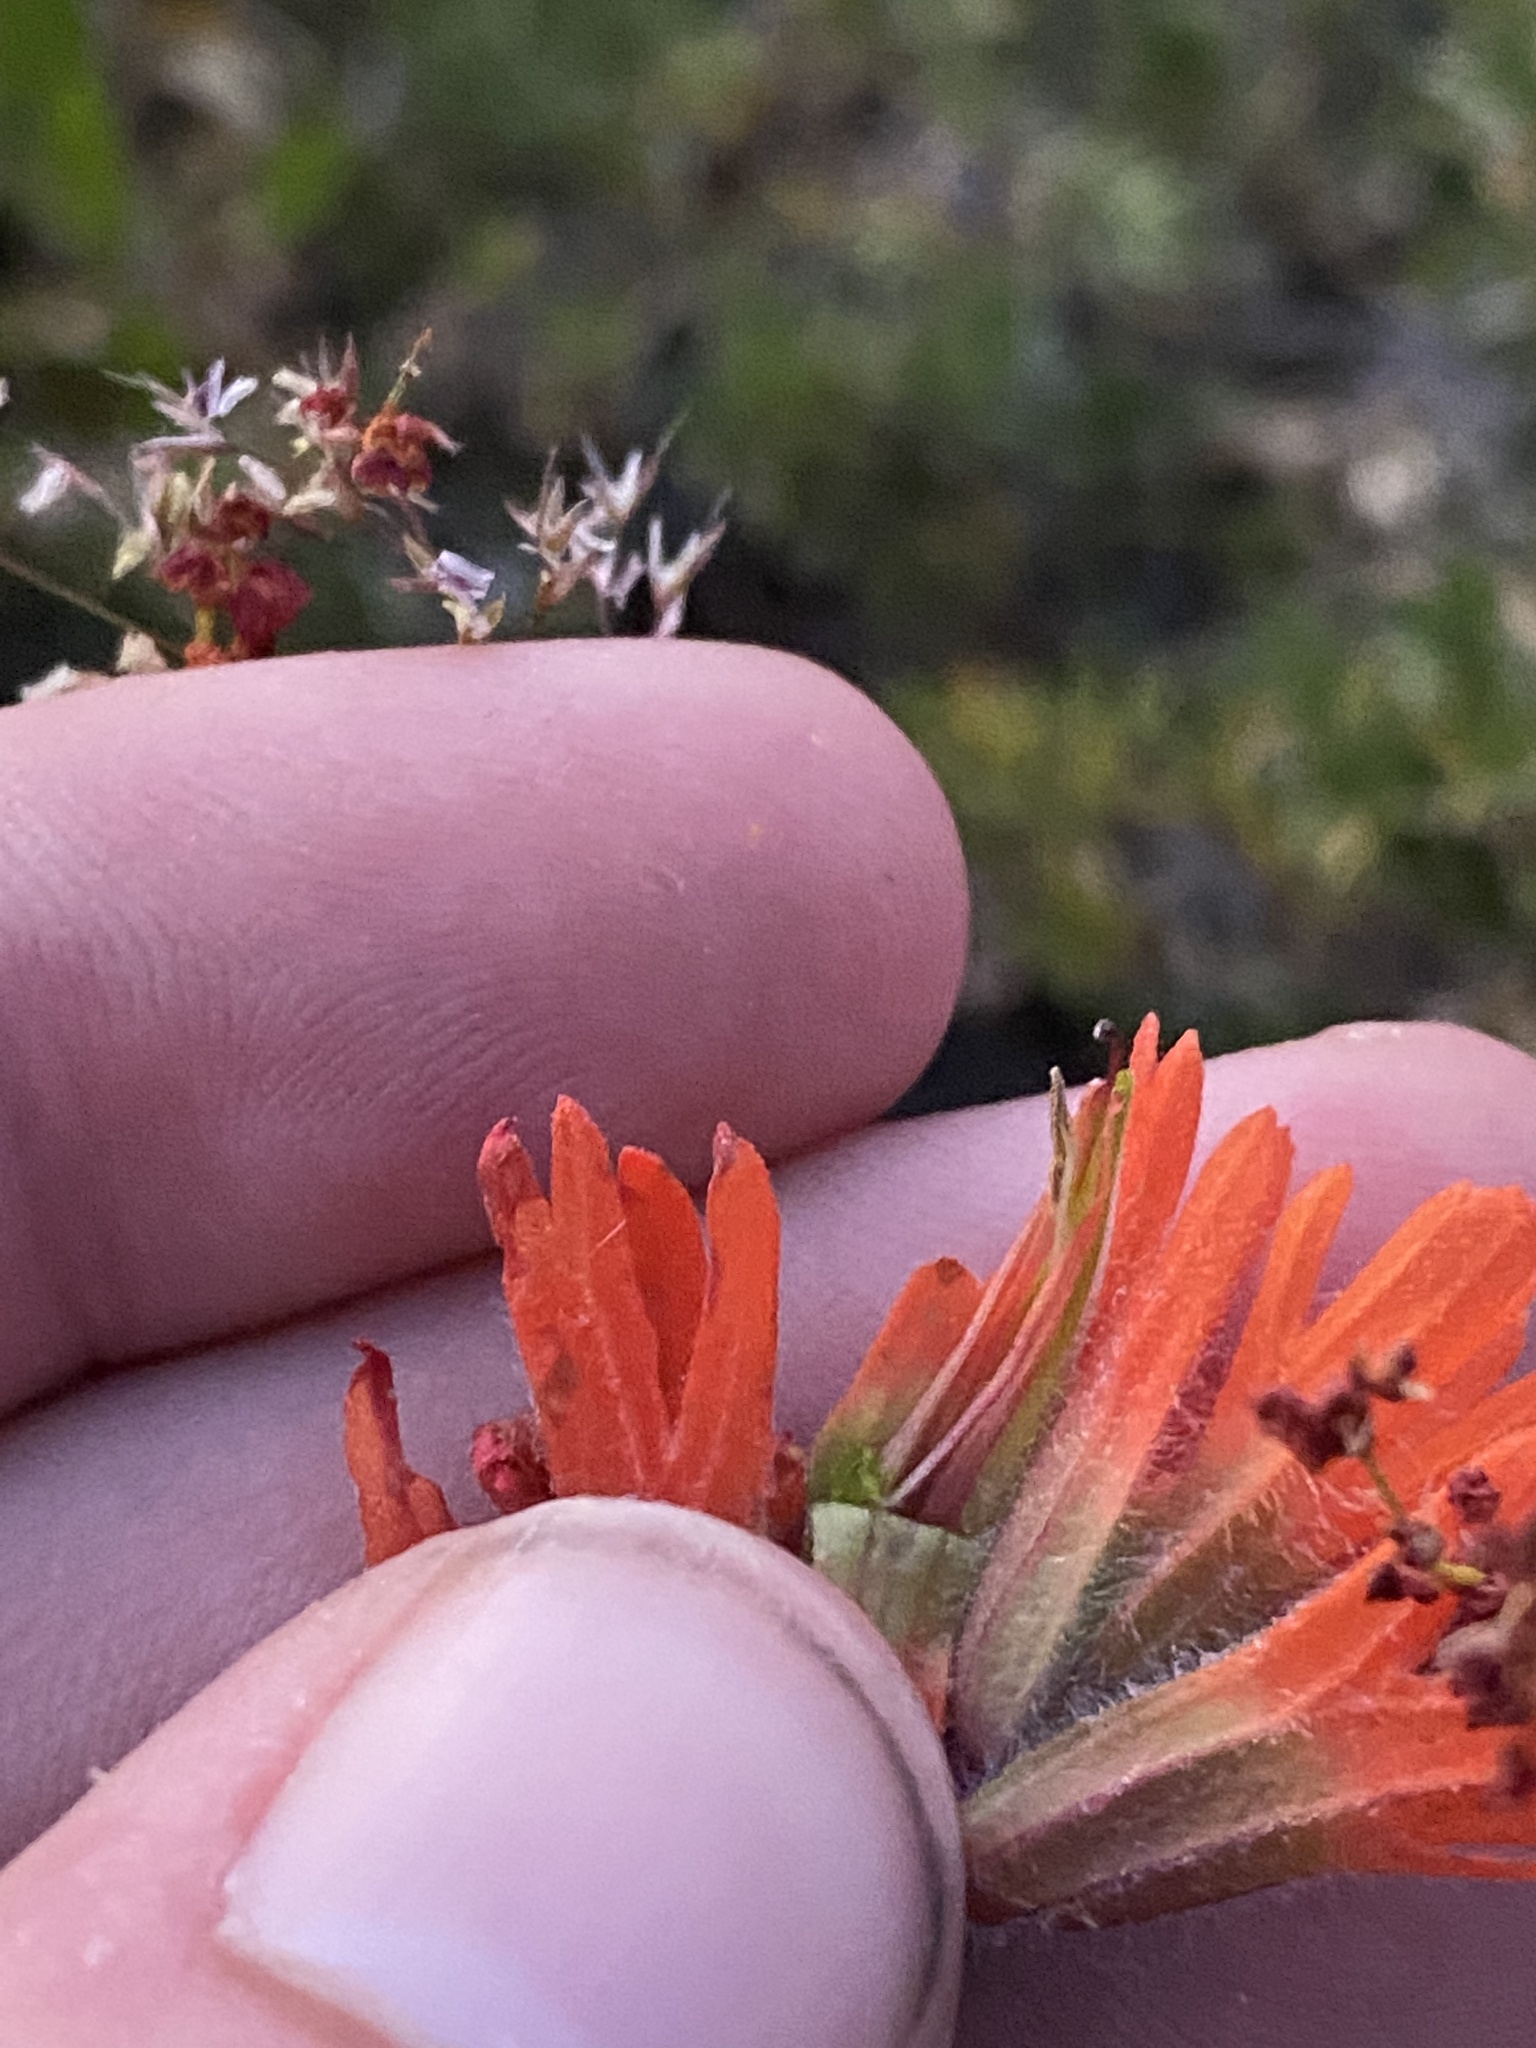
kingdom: Plantae
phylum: Tracheophyta
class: Magnoliopsida
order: Lamiales
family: Orobanchaceae
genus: Castilleja
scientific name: Castilleja hispida
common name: Bristly paintbrush
